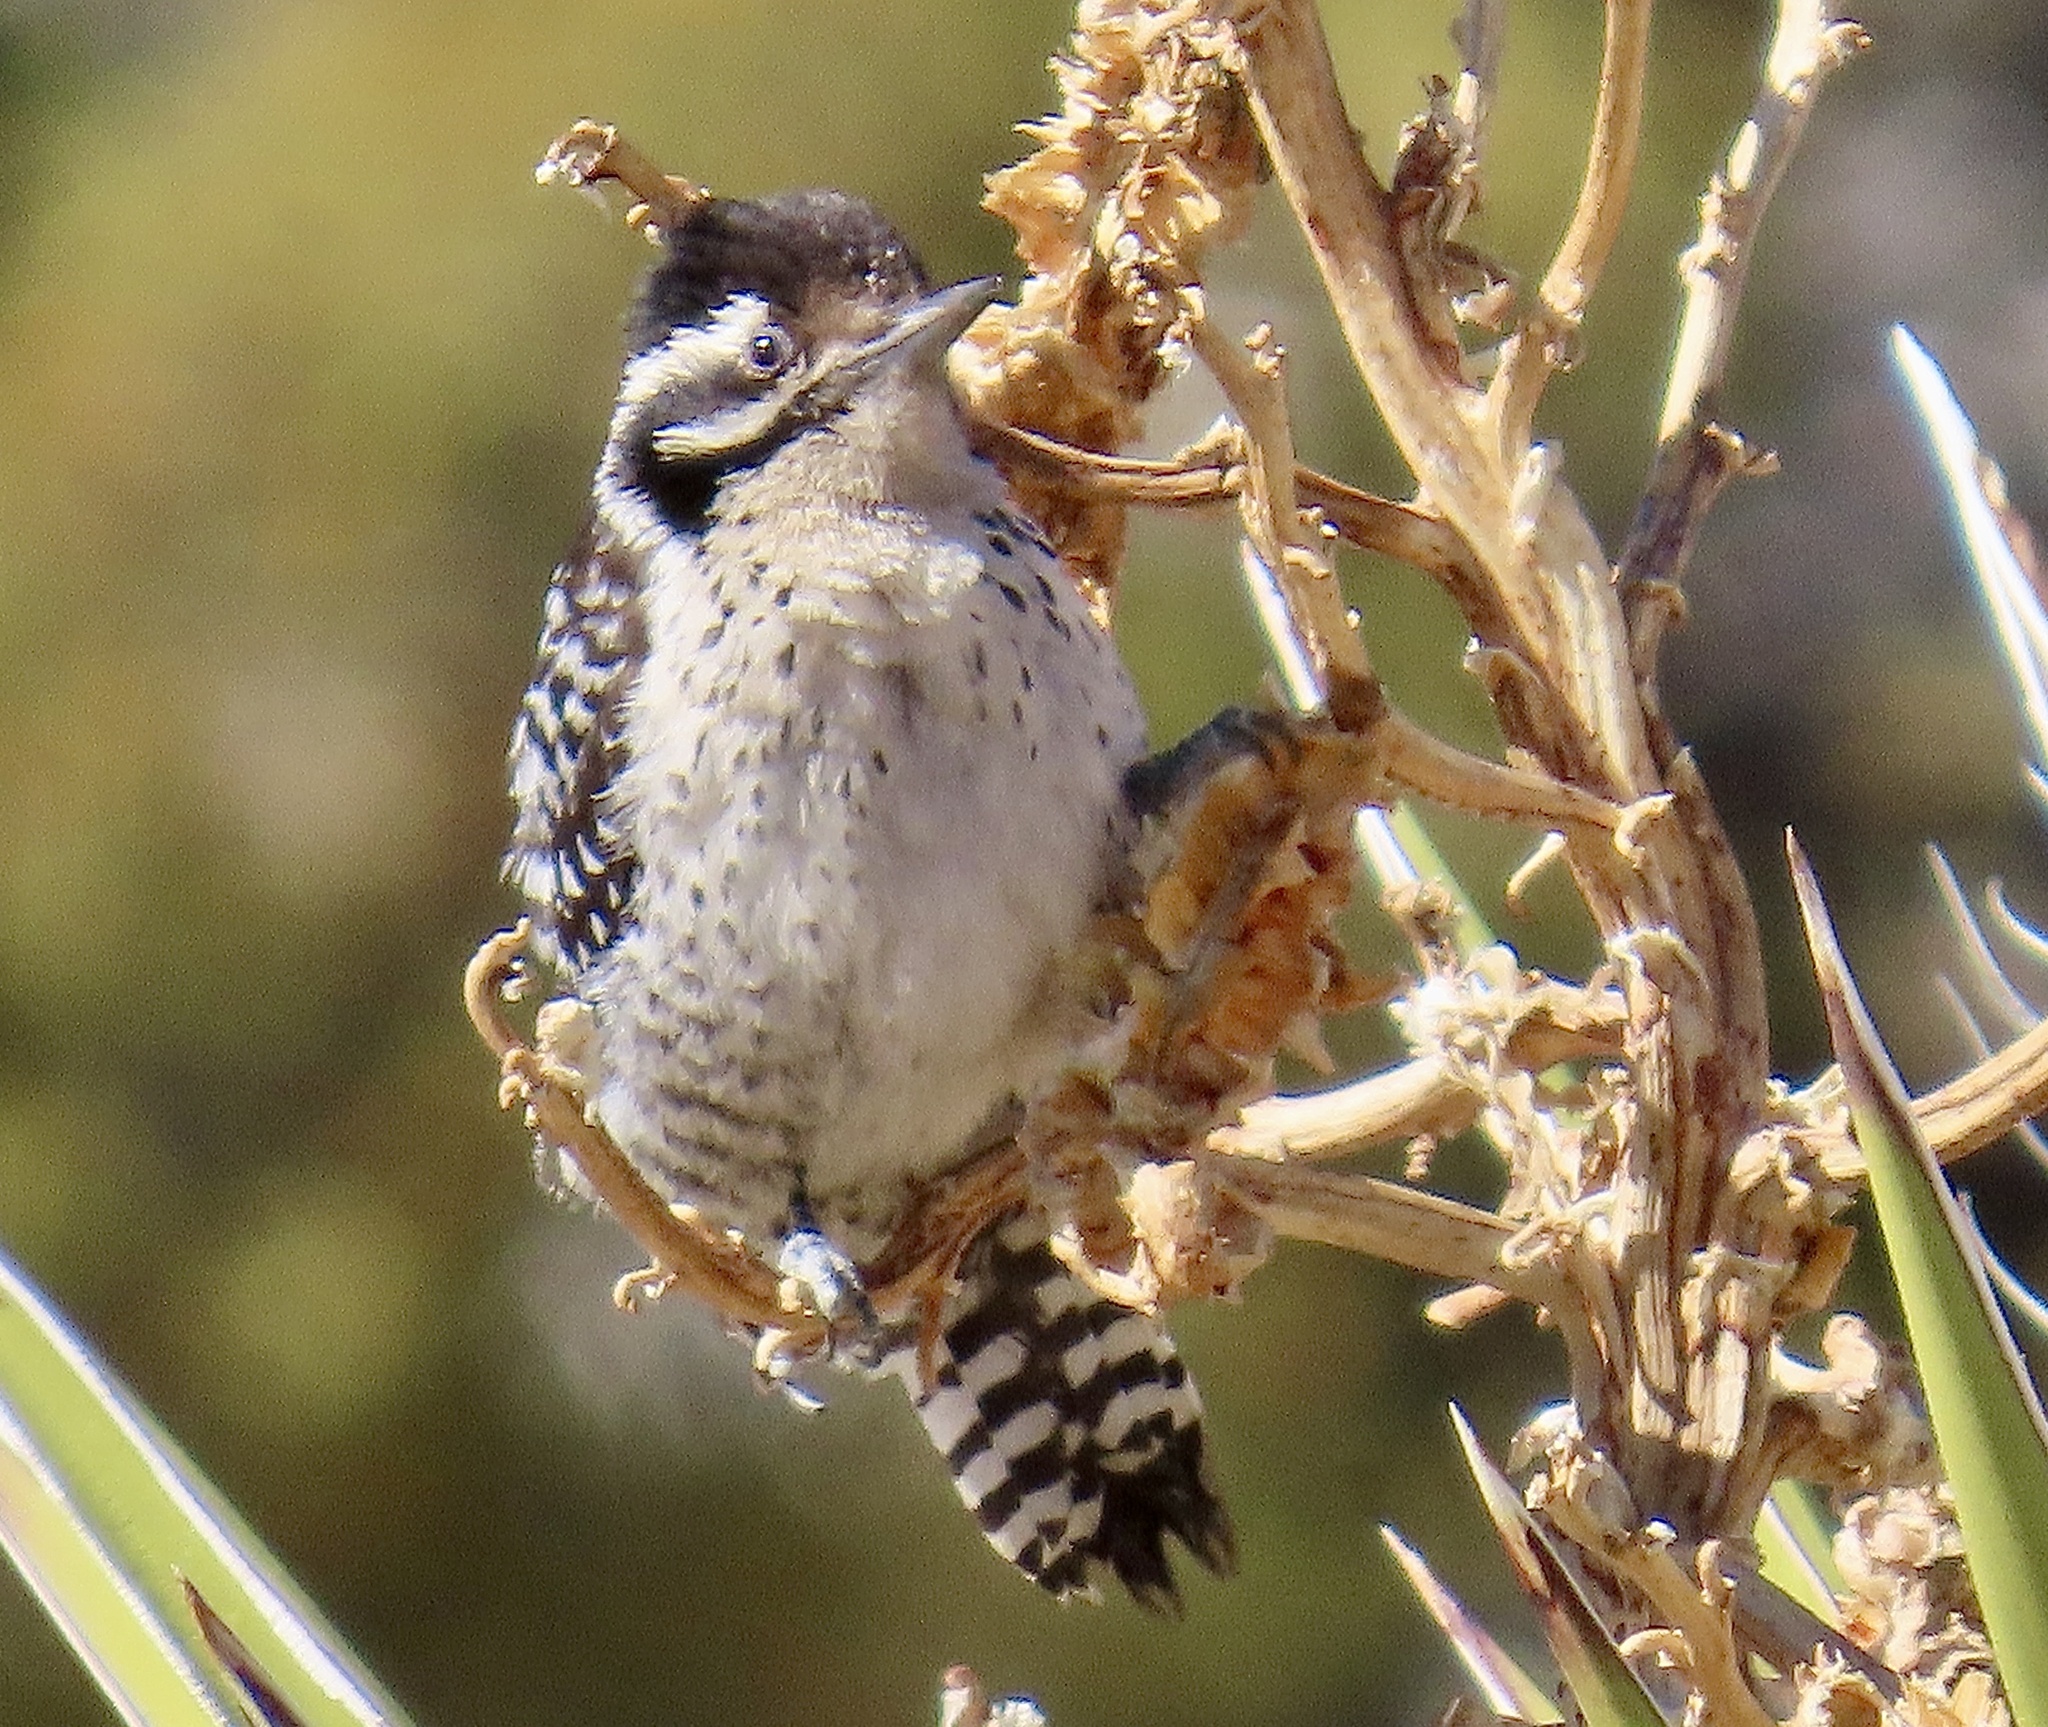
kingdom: Animalia
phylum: Chordata
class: Aves
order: Piciformes
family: Picidae
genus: Dryobates
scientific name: Dryobates scalaris
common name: Ladder-backed woodpecker
